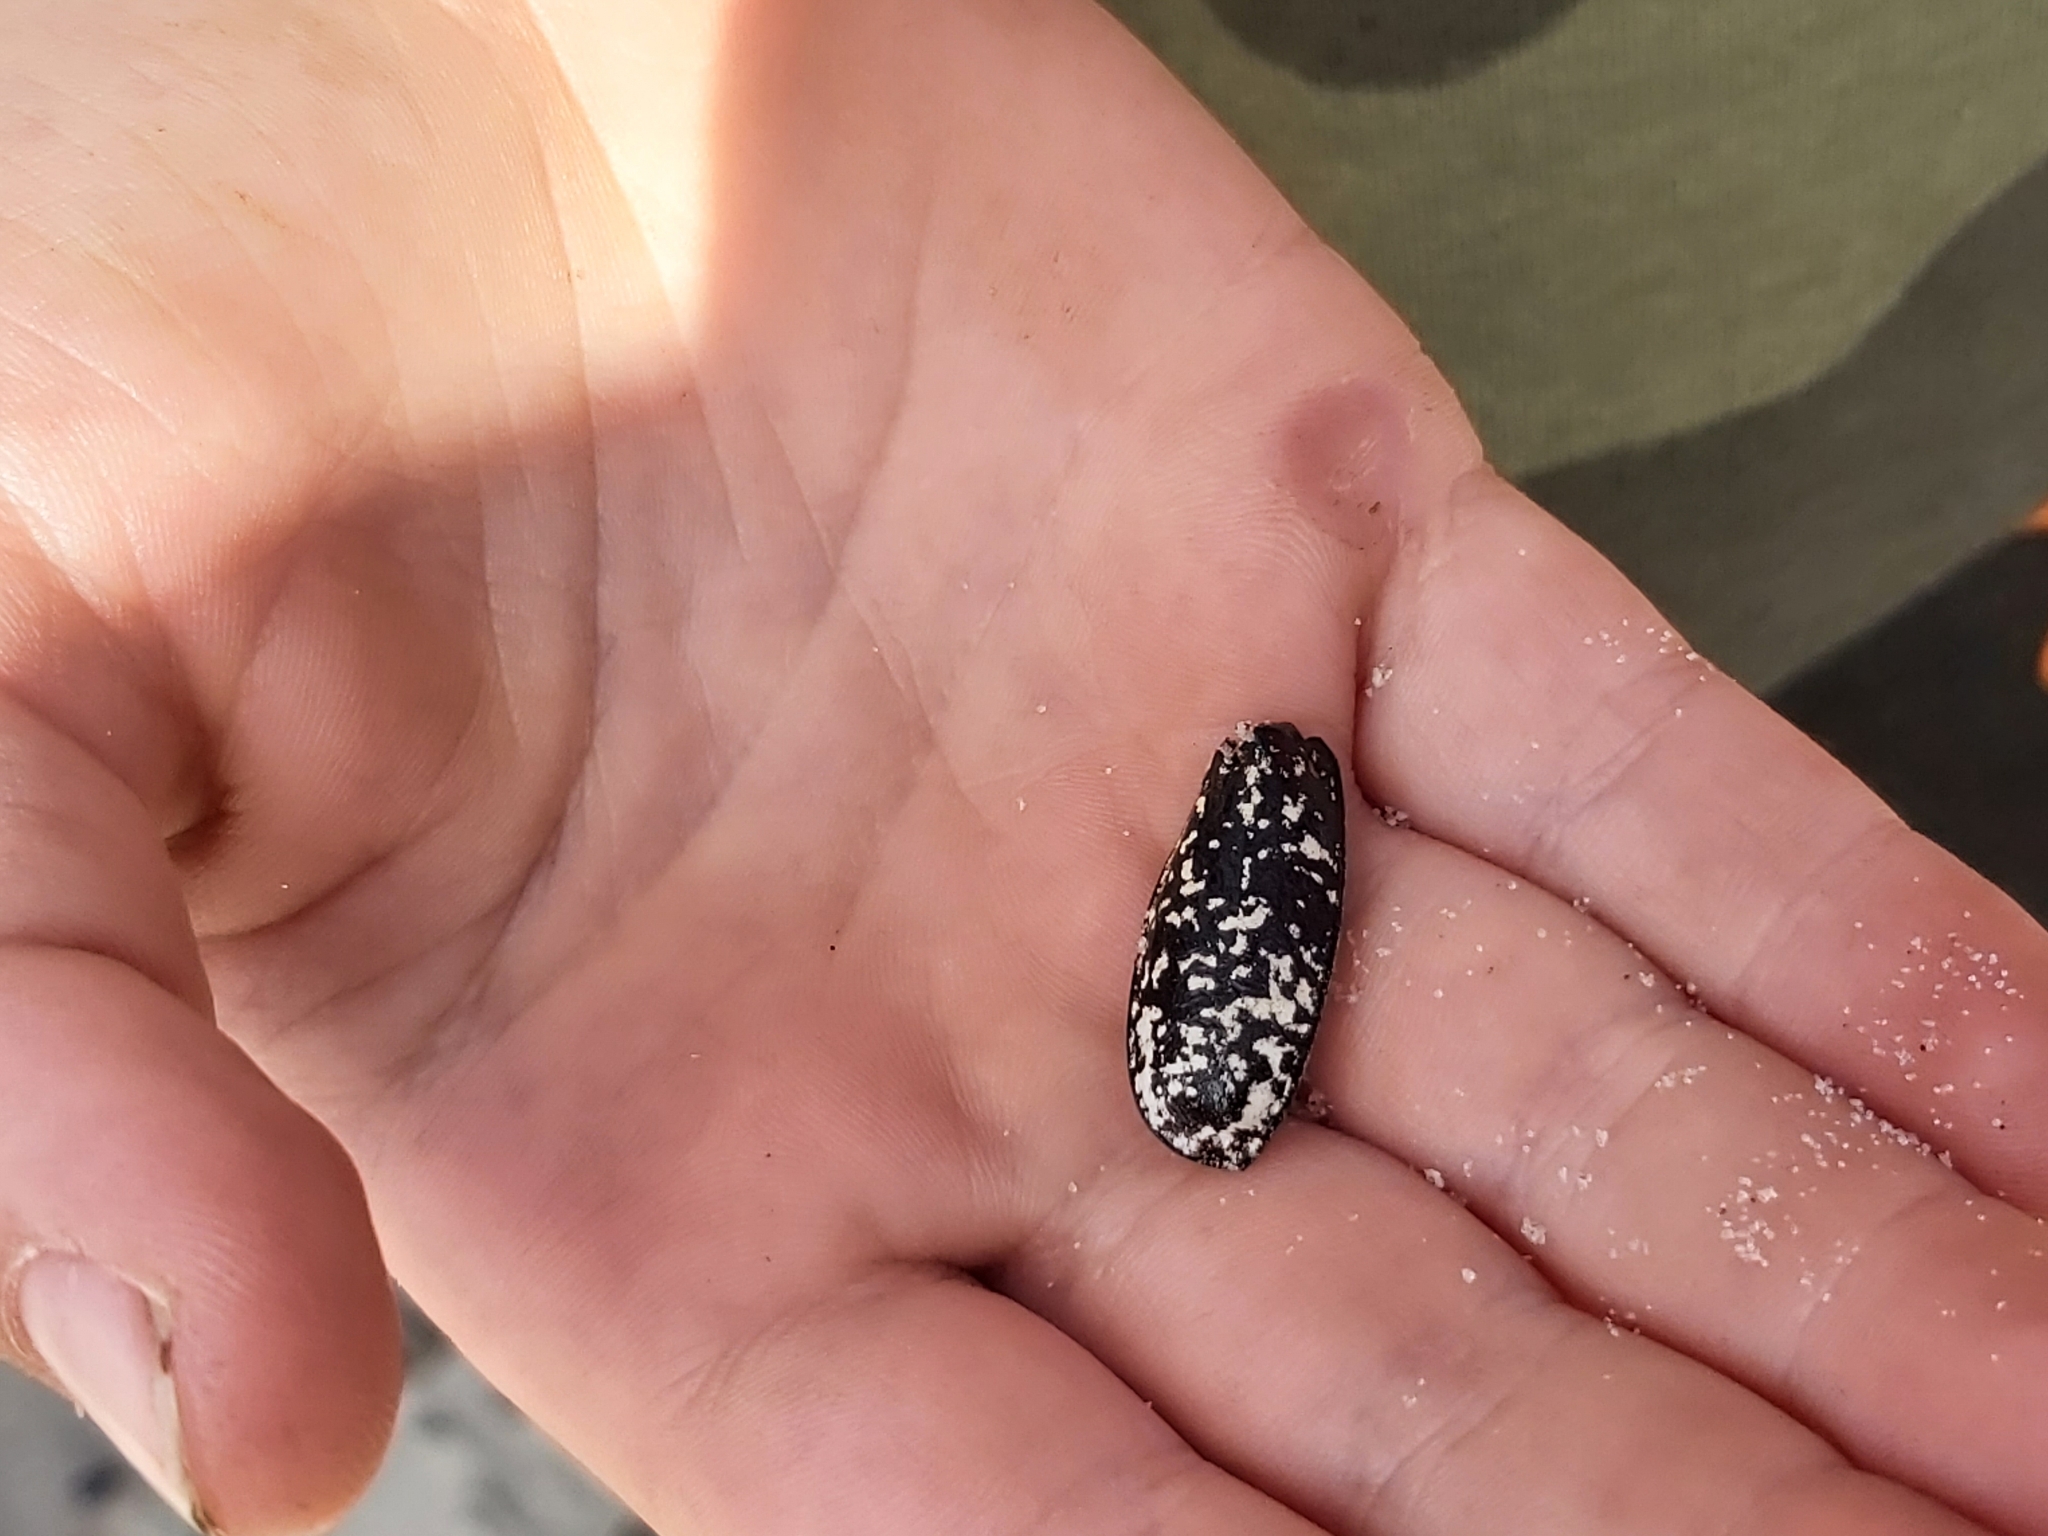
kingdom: Animalia
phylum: Arthropoda
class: Insecta
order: Coleoptera
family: Scarabaeidae
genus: Polyphylla
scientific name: Polyphylla fullo
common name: Pine chafer
